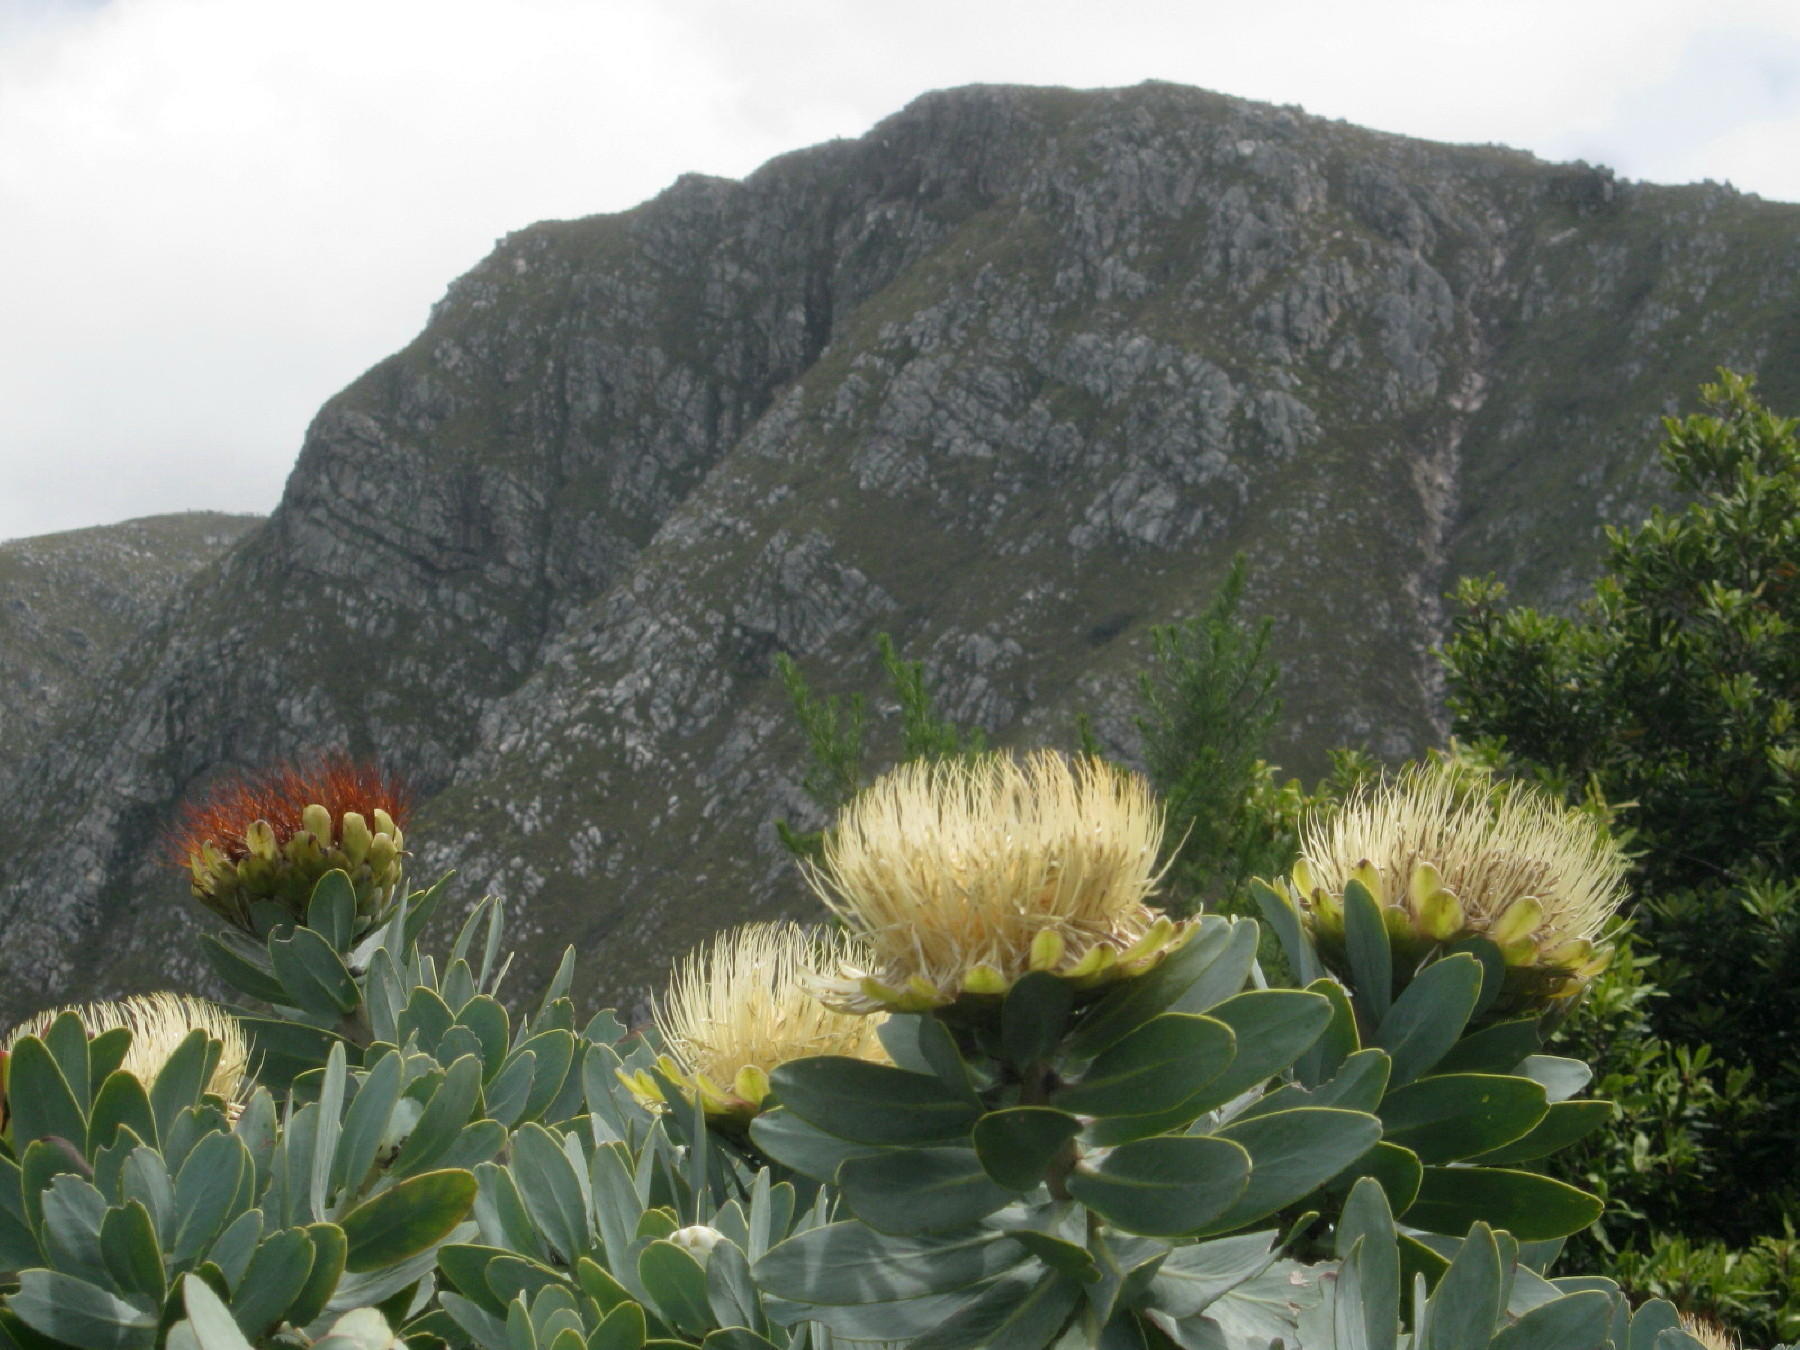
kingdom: Plantae
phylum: Tracheophyta
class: Magnoliopsida
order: Proteales
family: Proteaceae
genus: Protea
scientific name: Protea nitida
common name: Tree protea
